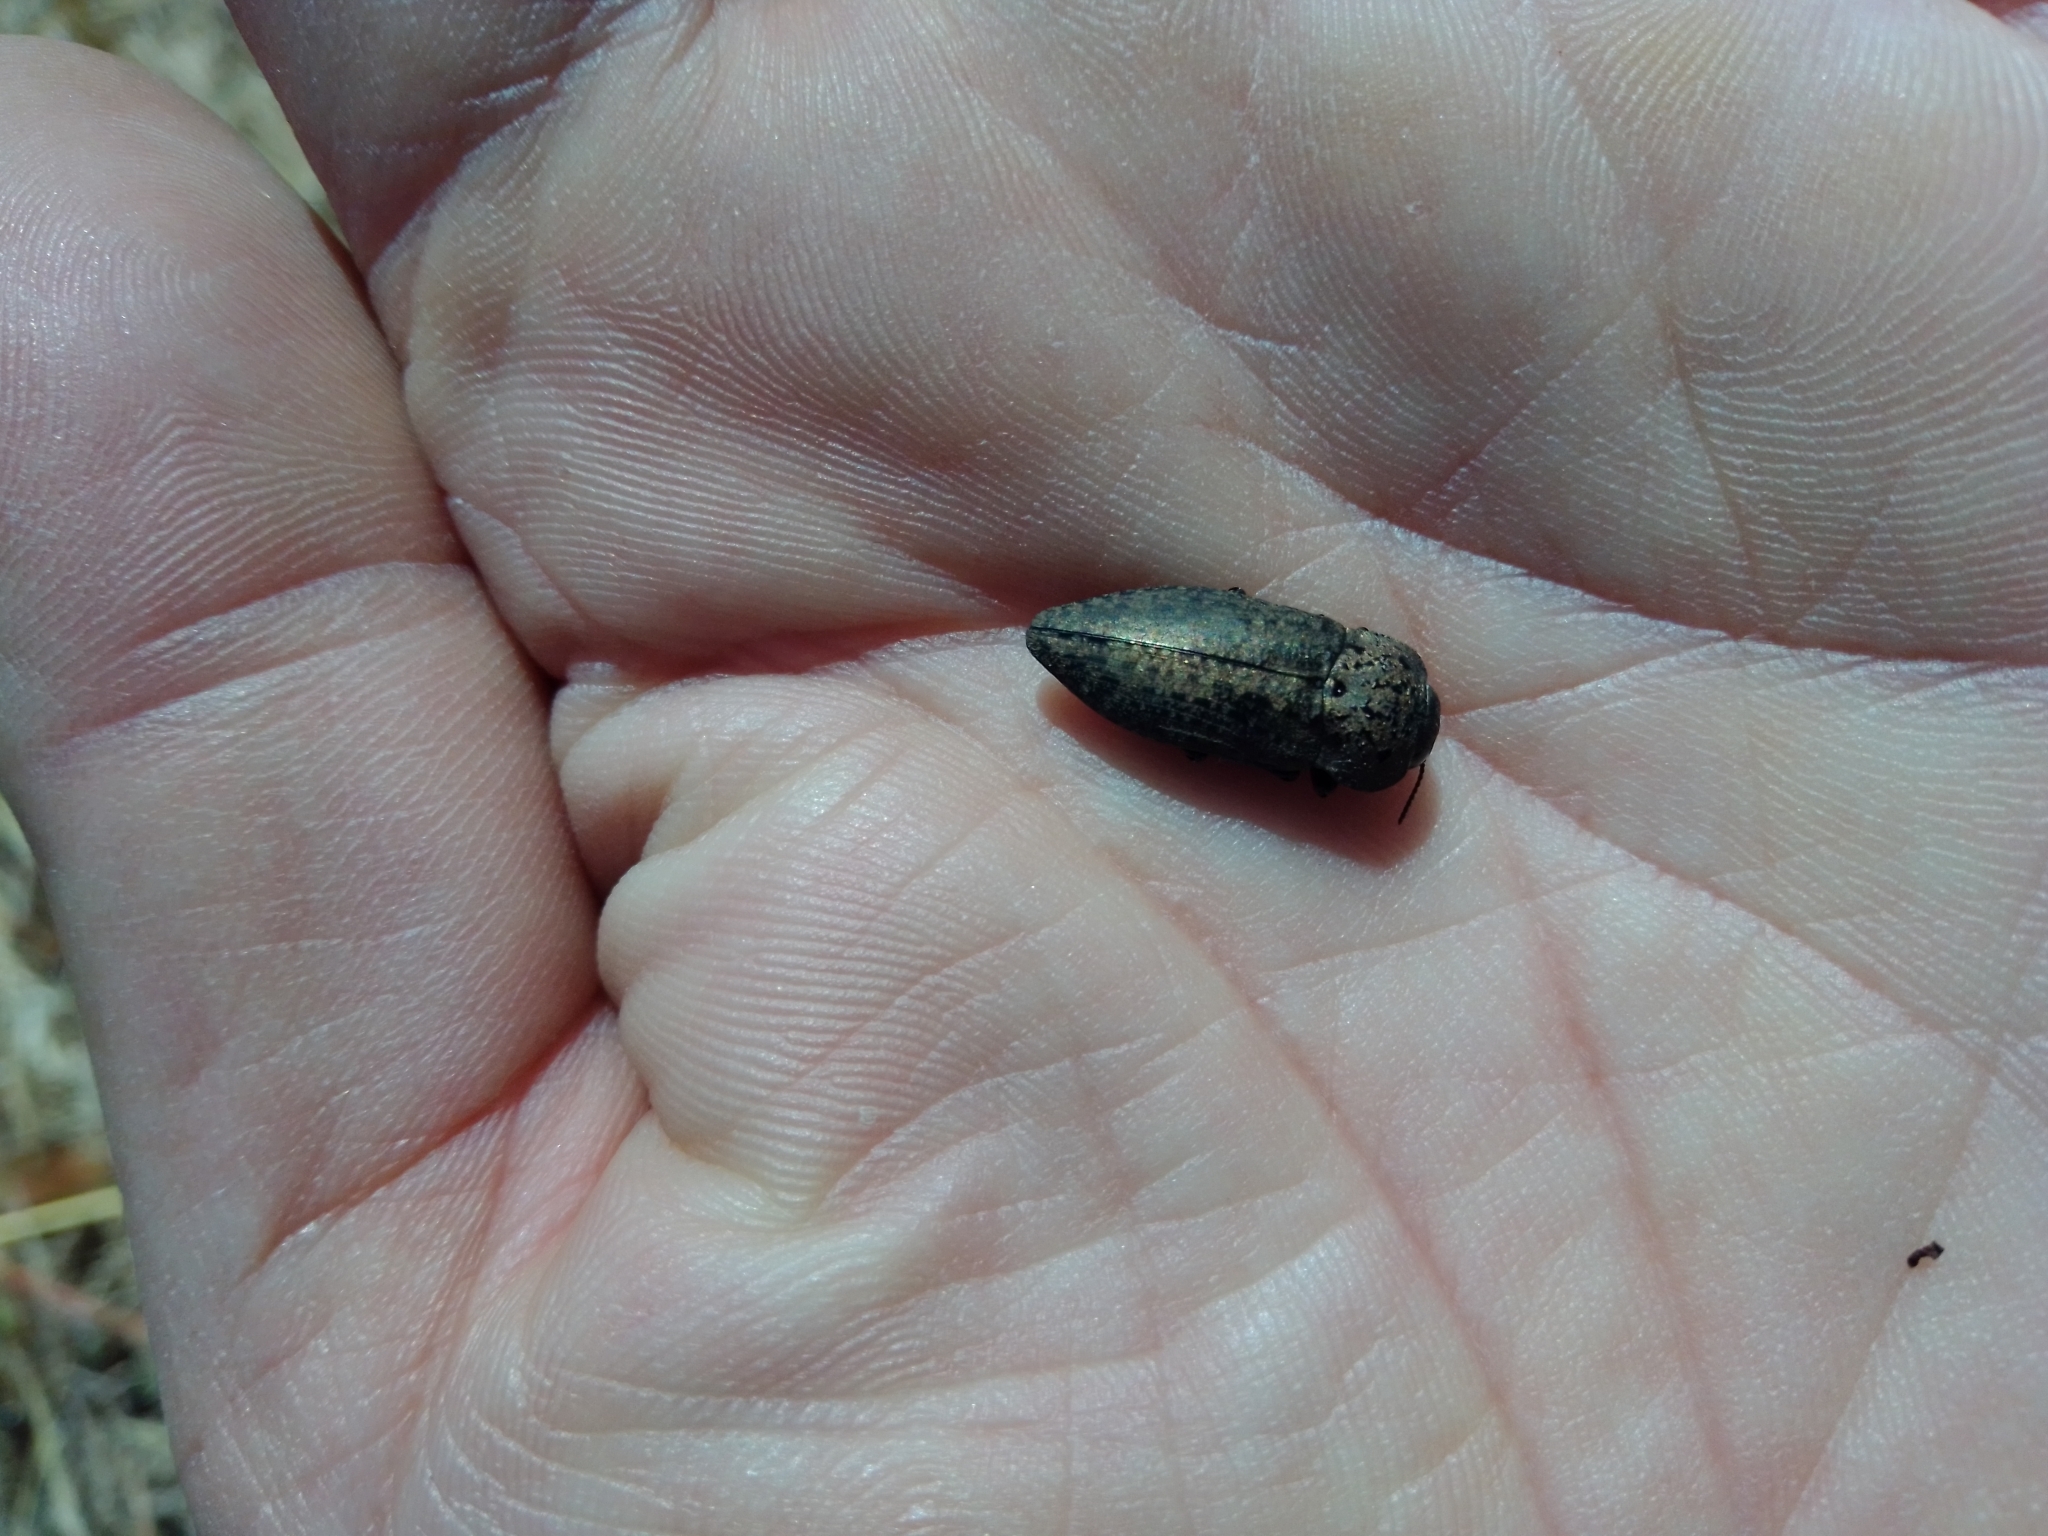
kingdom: Animalia
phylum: Arthropoda
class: Insecta
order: Coleoptera
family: Buprestidae
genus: Capnodis
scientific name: Capnodis tenebricosa
